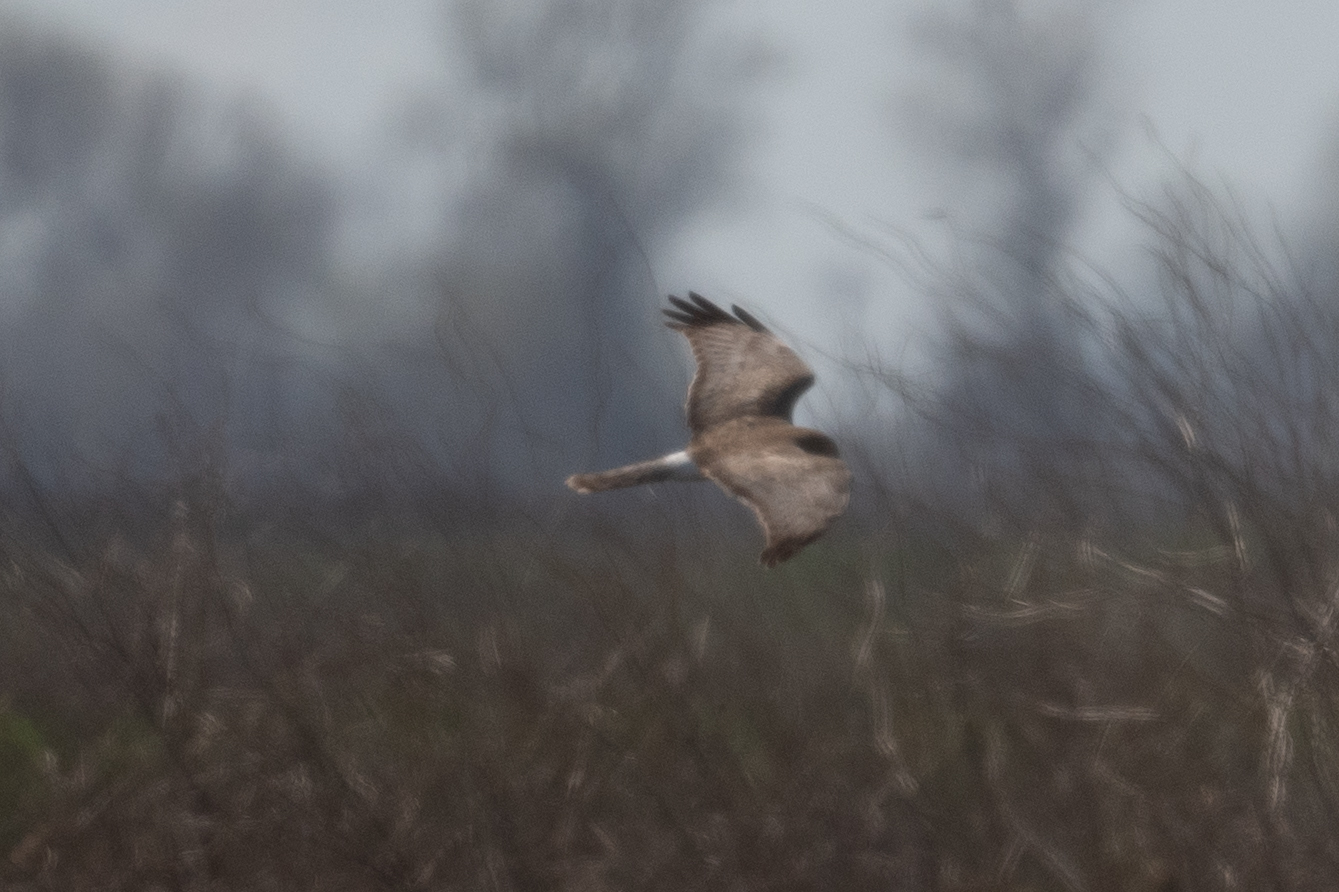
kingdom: Animalia
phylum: Chordata
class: Aves
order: Accipitriformes
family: Accipitridae
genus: Circus
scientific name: Circus cyaneus
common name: Hen harrier
